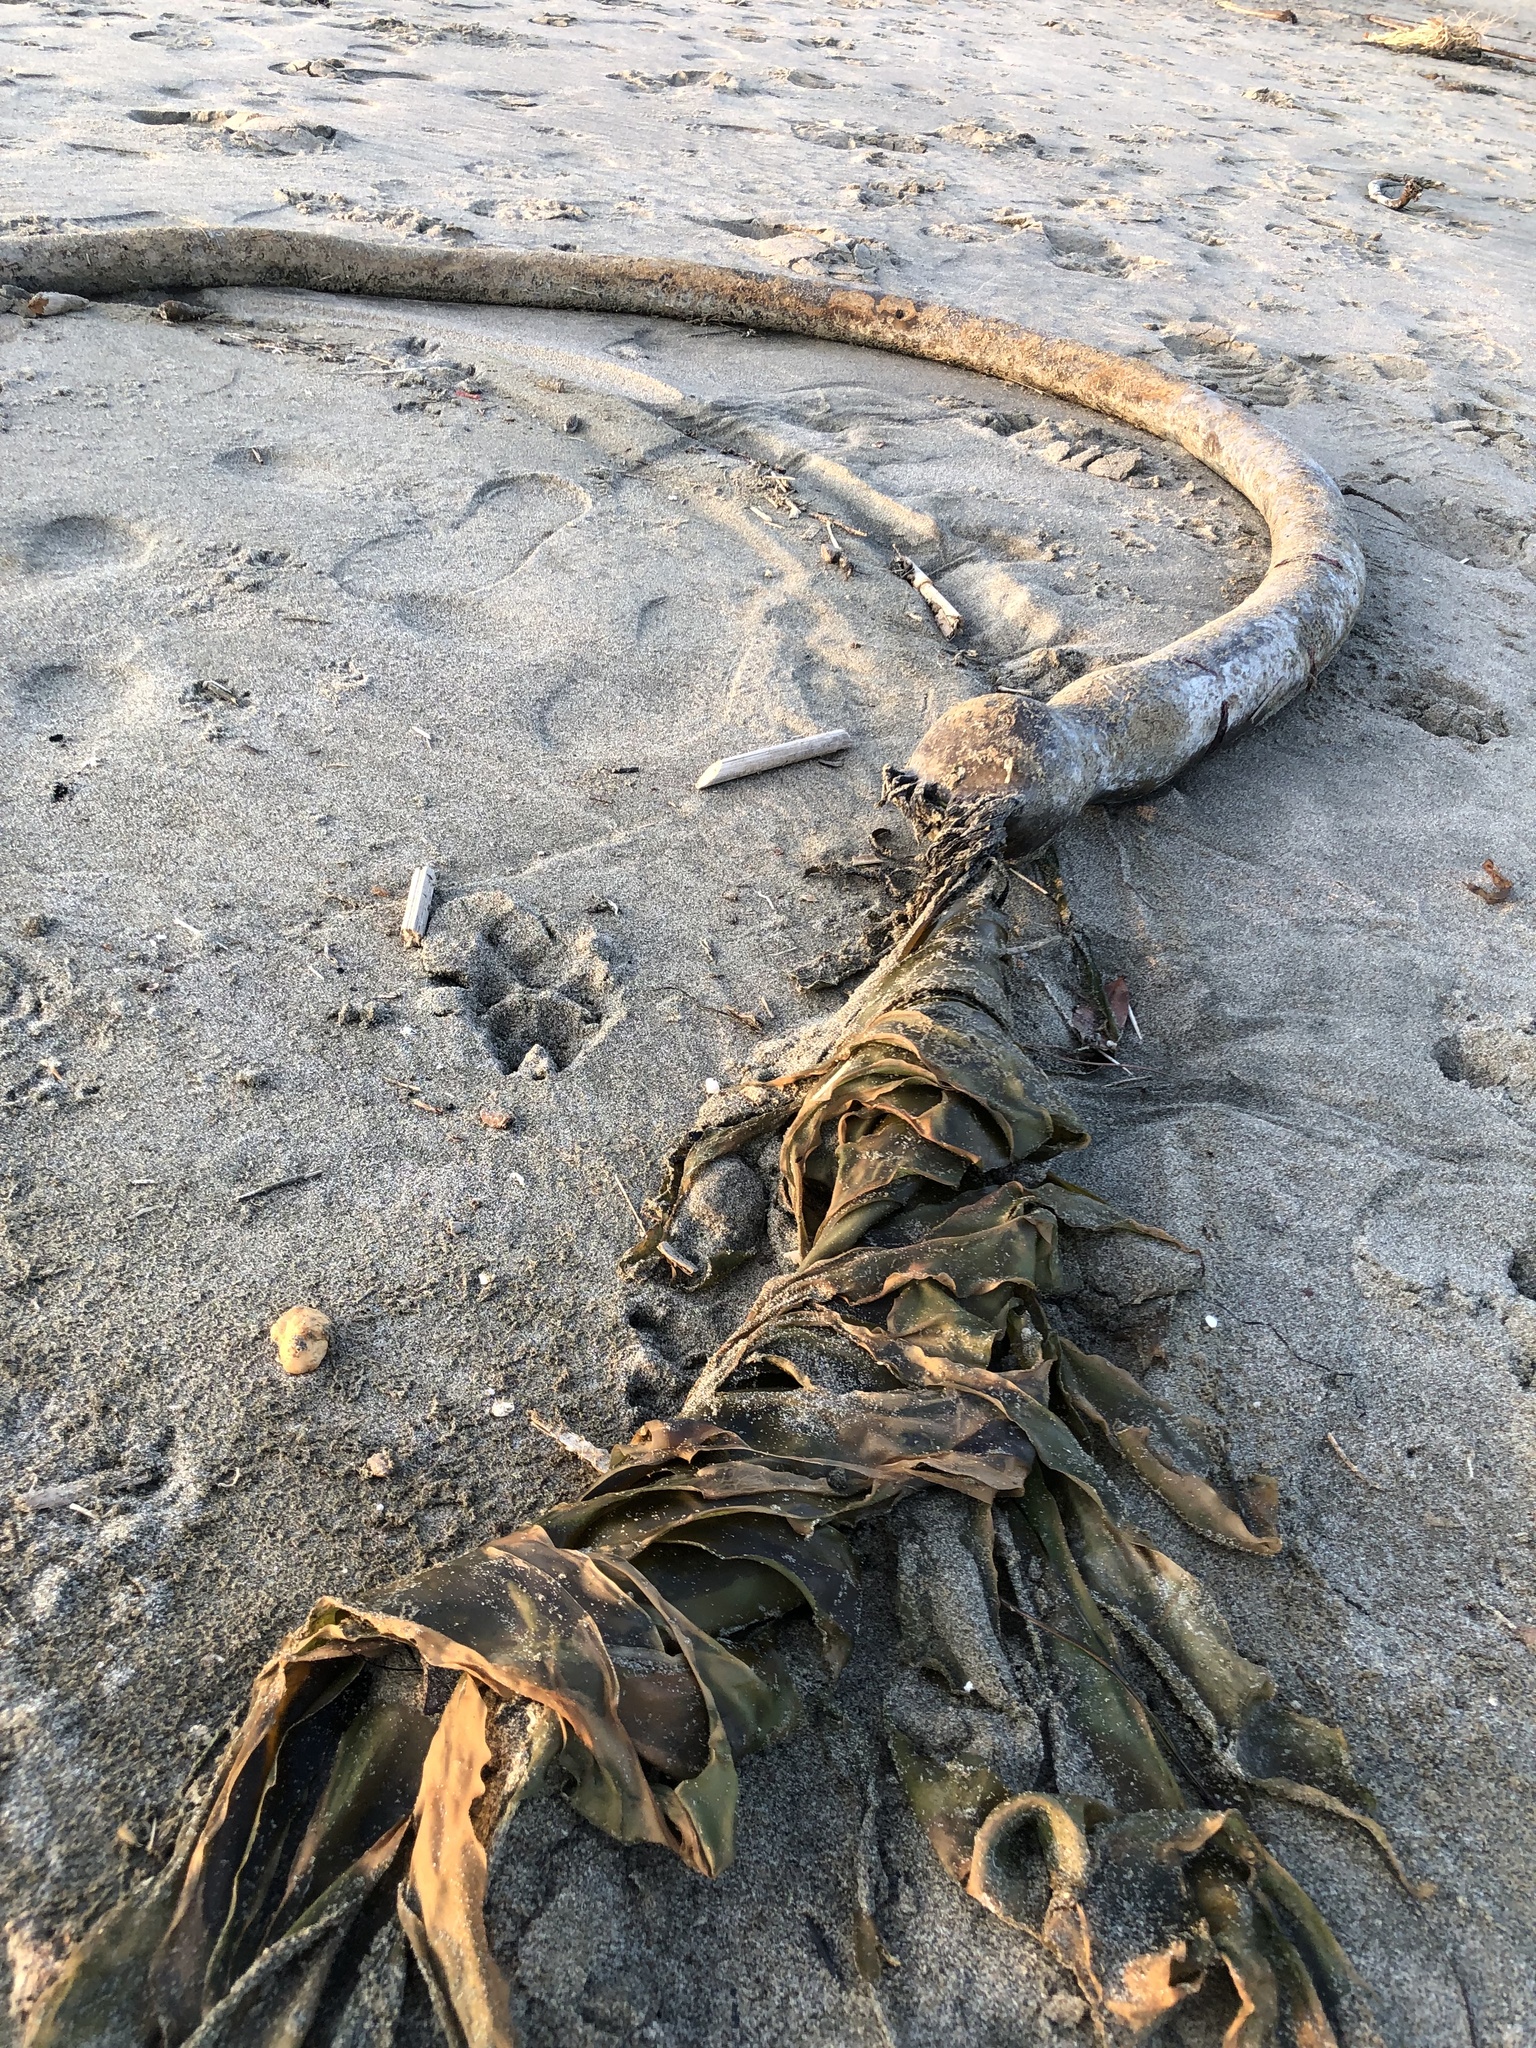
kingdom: Chromista
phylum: Ochrophyta
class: Phaeophyceae
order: Laminariales
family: Laminariaceae
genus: Nereocystis
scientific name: Nereocystis luetkeana
